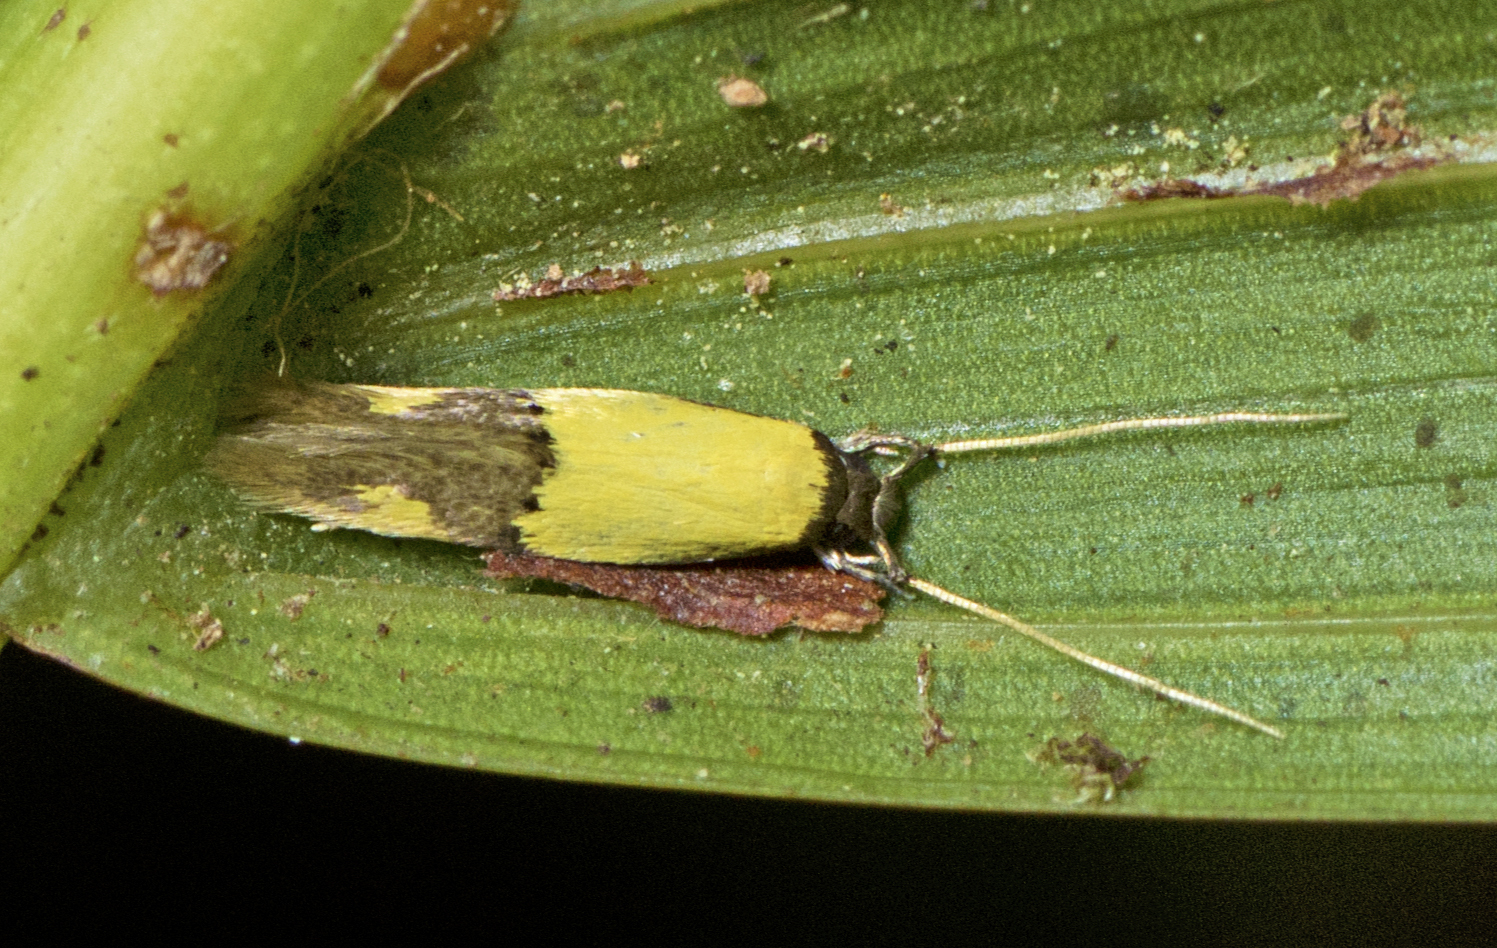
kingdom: Animalia
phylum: Arthropoda
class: Insecta
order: Lepidoptera
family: Tineidae
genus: Opogona
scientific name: Opogona papayae
